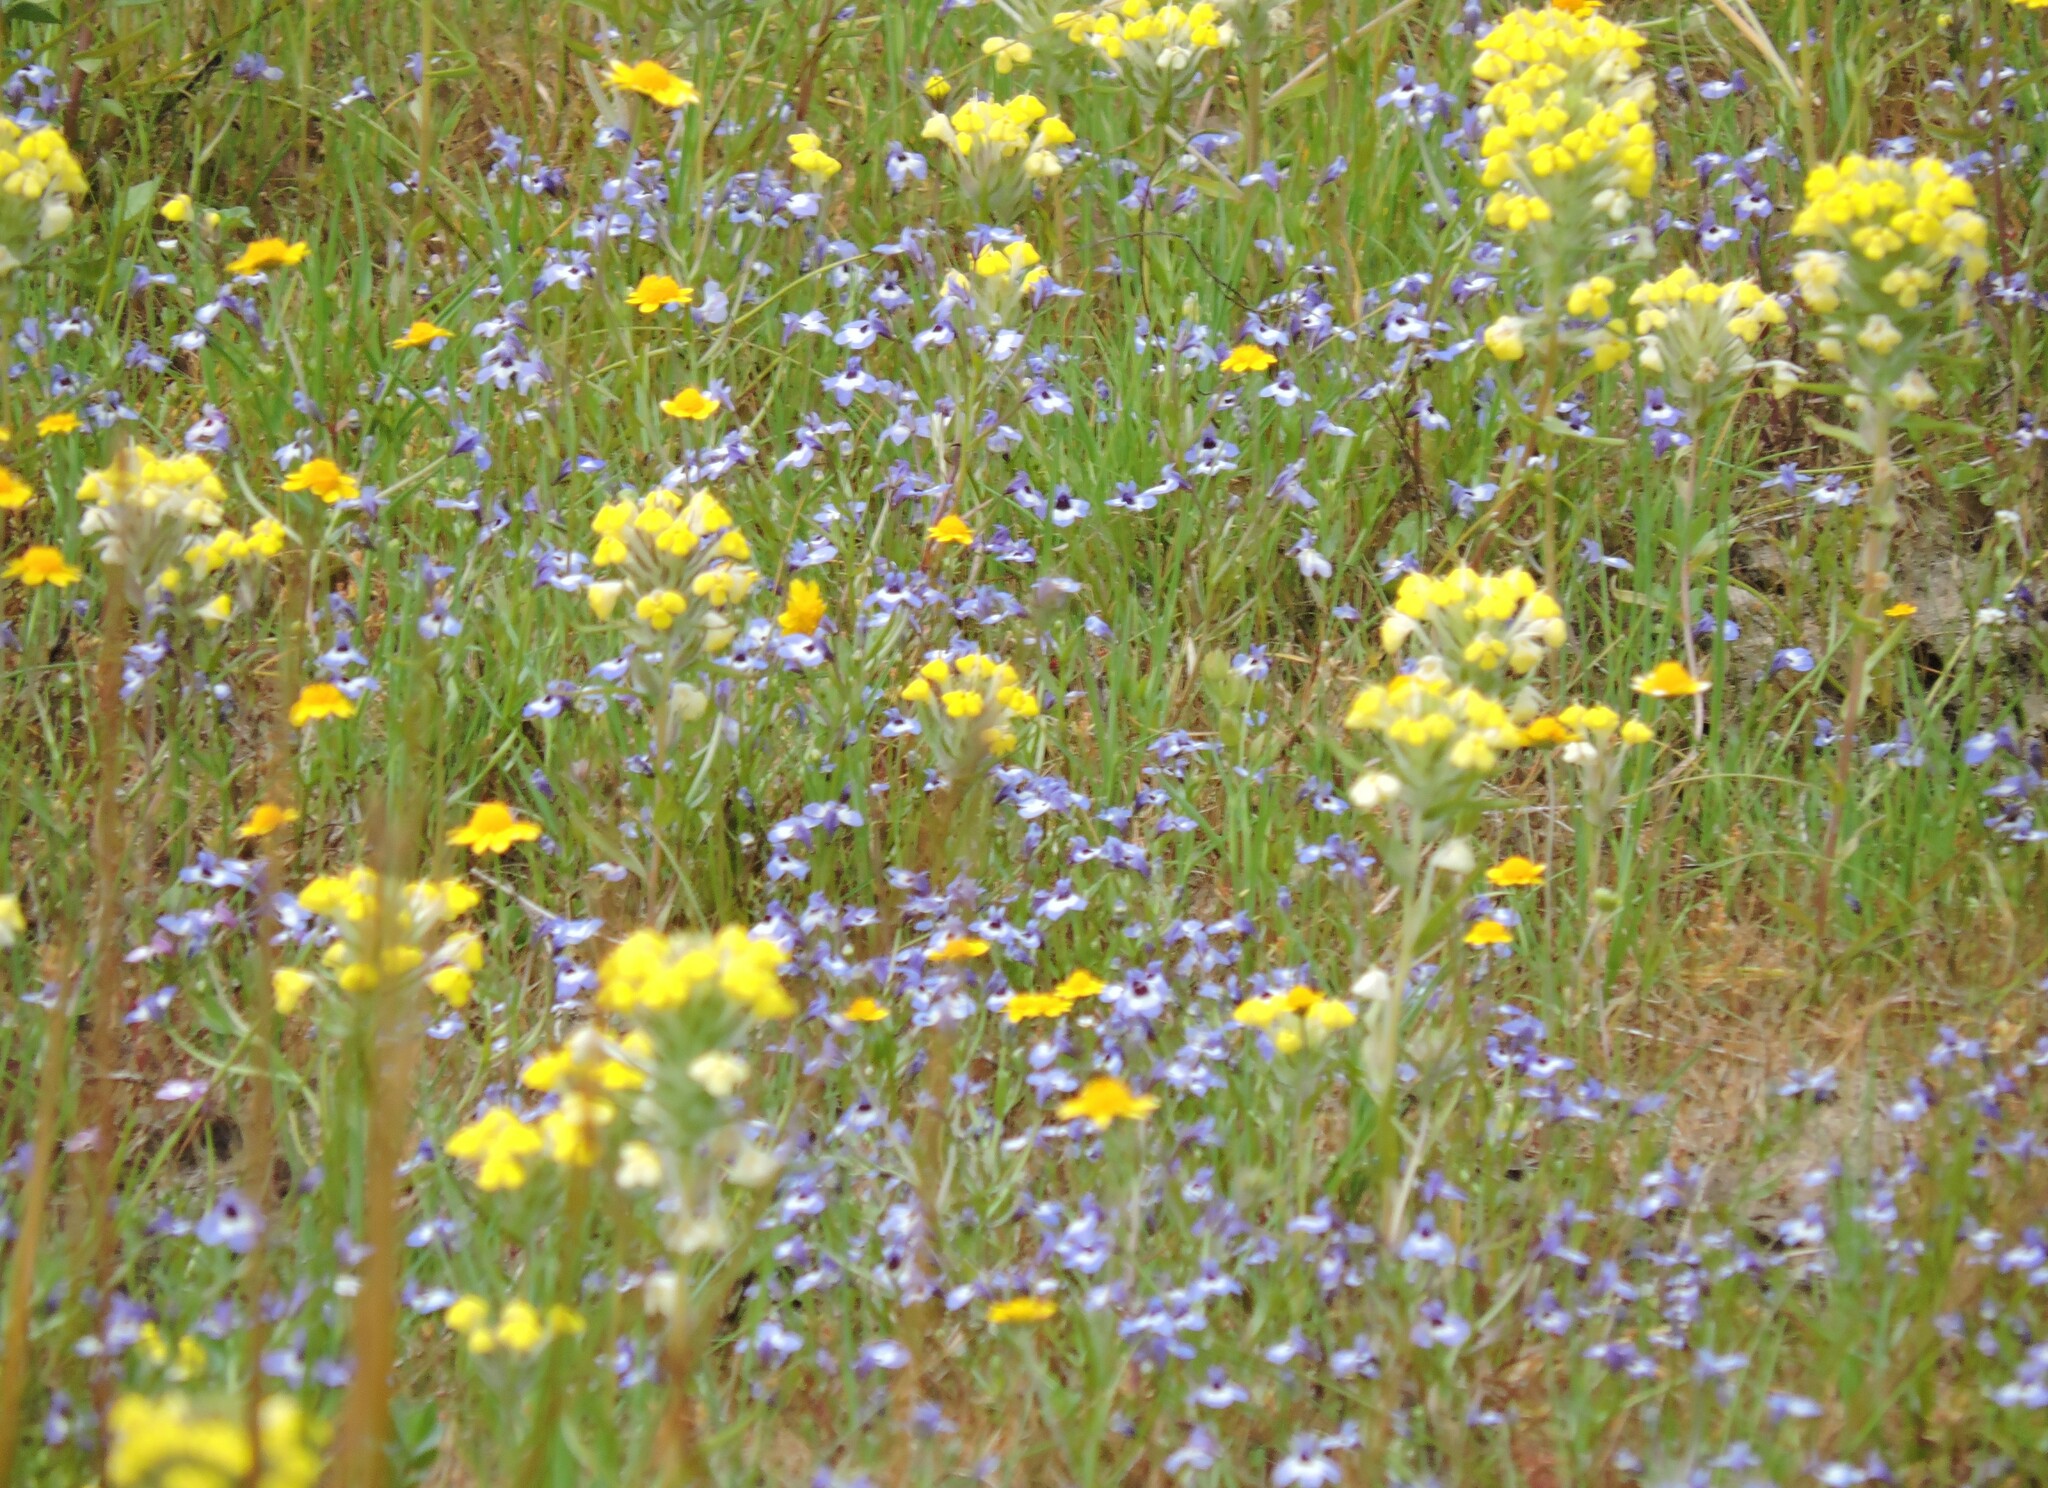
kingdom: Plantae
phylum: Tracheophyta
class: Magnoliopsida
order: Asterales
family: Campanulaceae
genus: Downingia
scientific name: Downingia concolor
